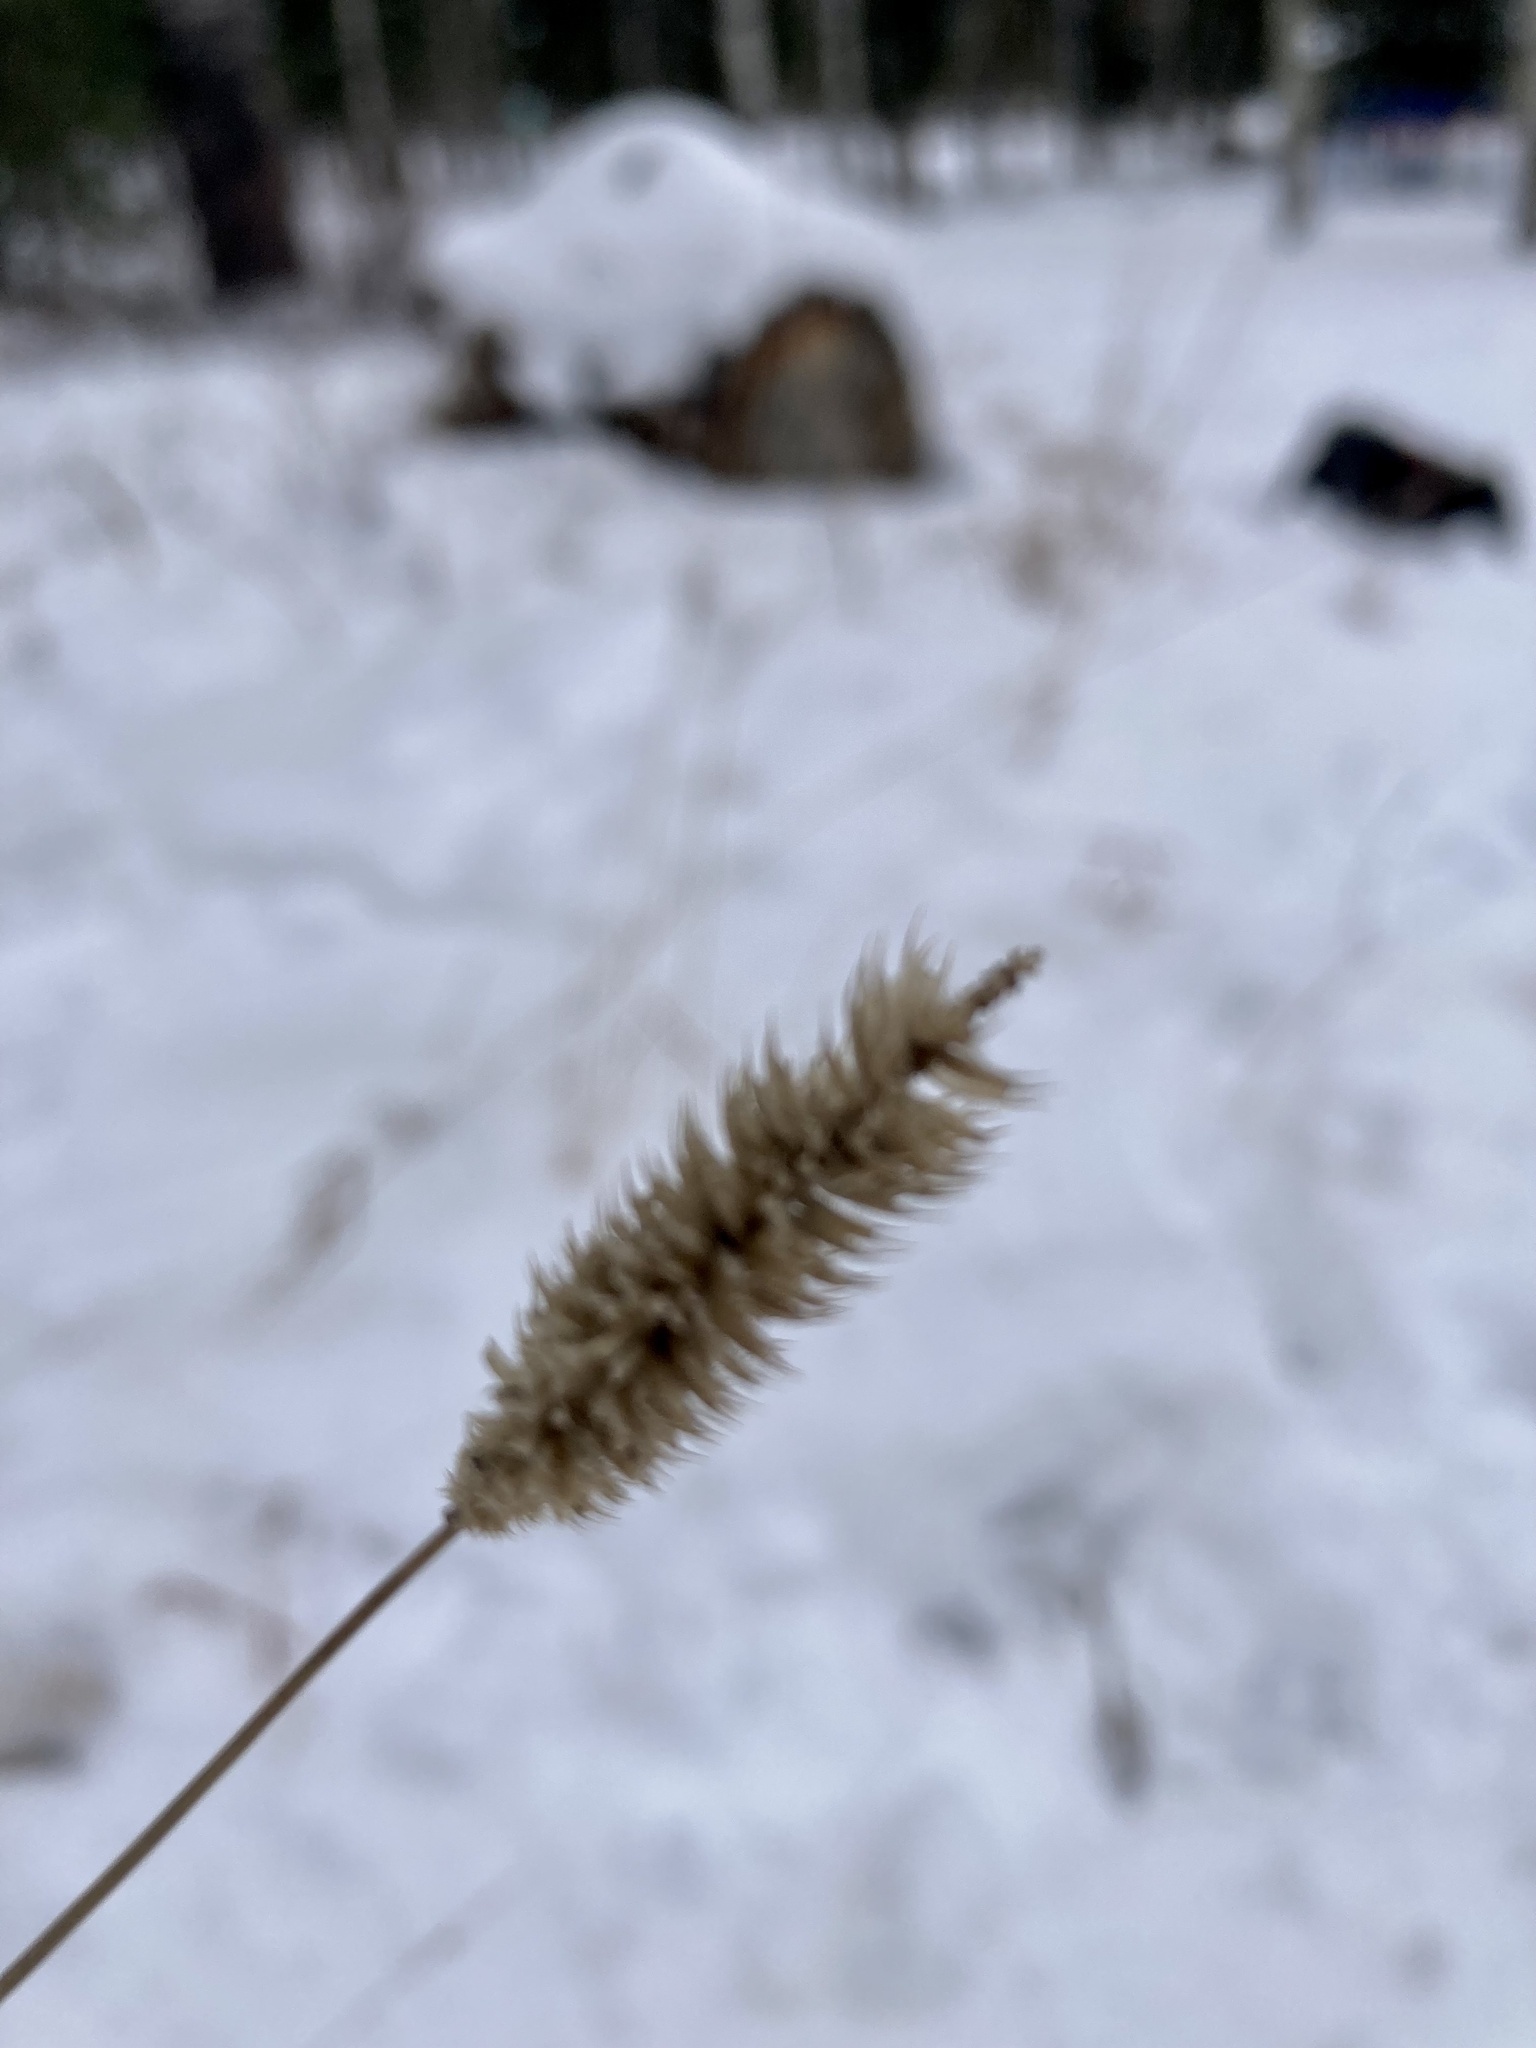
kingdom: Plantae
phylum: Tracheophyta
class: Liliopsida
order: Poales
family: Poaceae
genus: Phleum
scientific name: Phleum pratense
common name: Timothy grass
